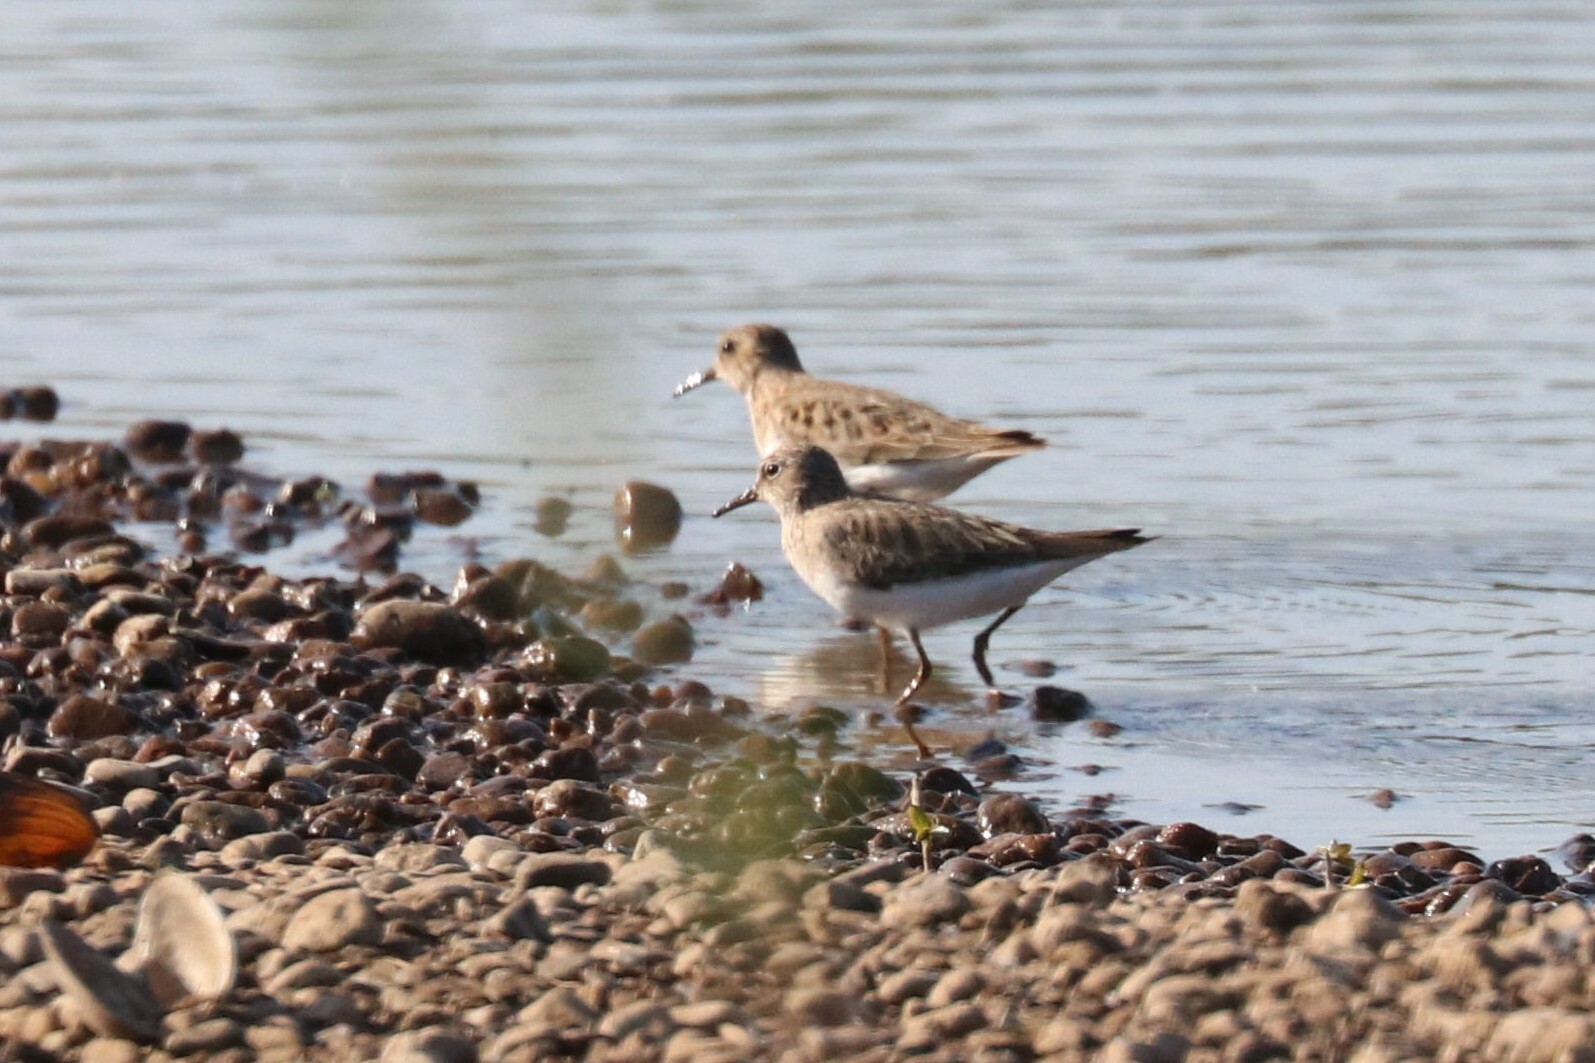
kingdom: Animalia
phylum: Chordata
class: Aves
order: Charadriiformes
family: Scolopacidae
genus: Calidris
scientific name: Calidris temminckii
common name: Temminck's stint
